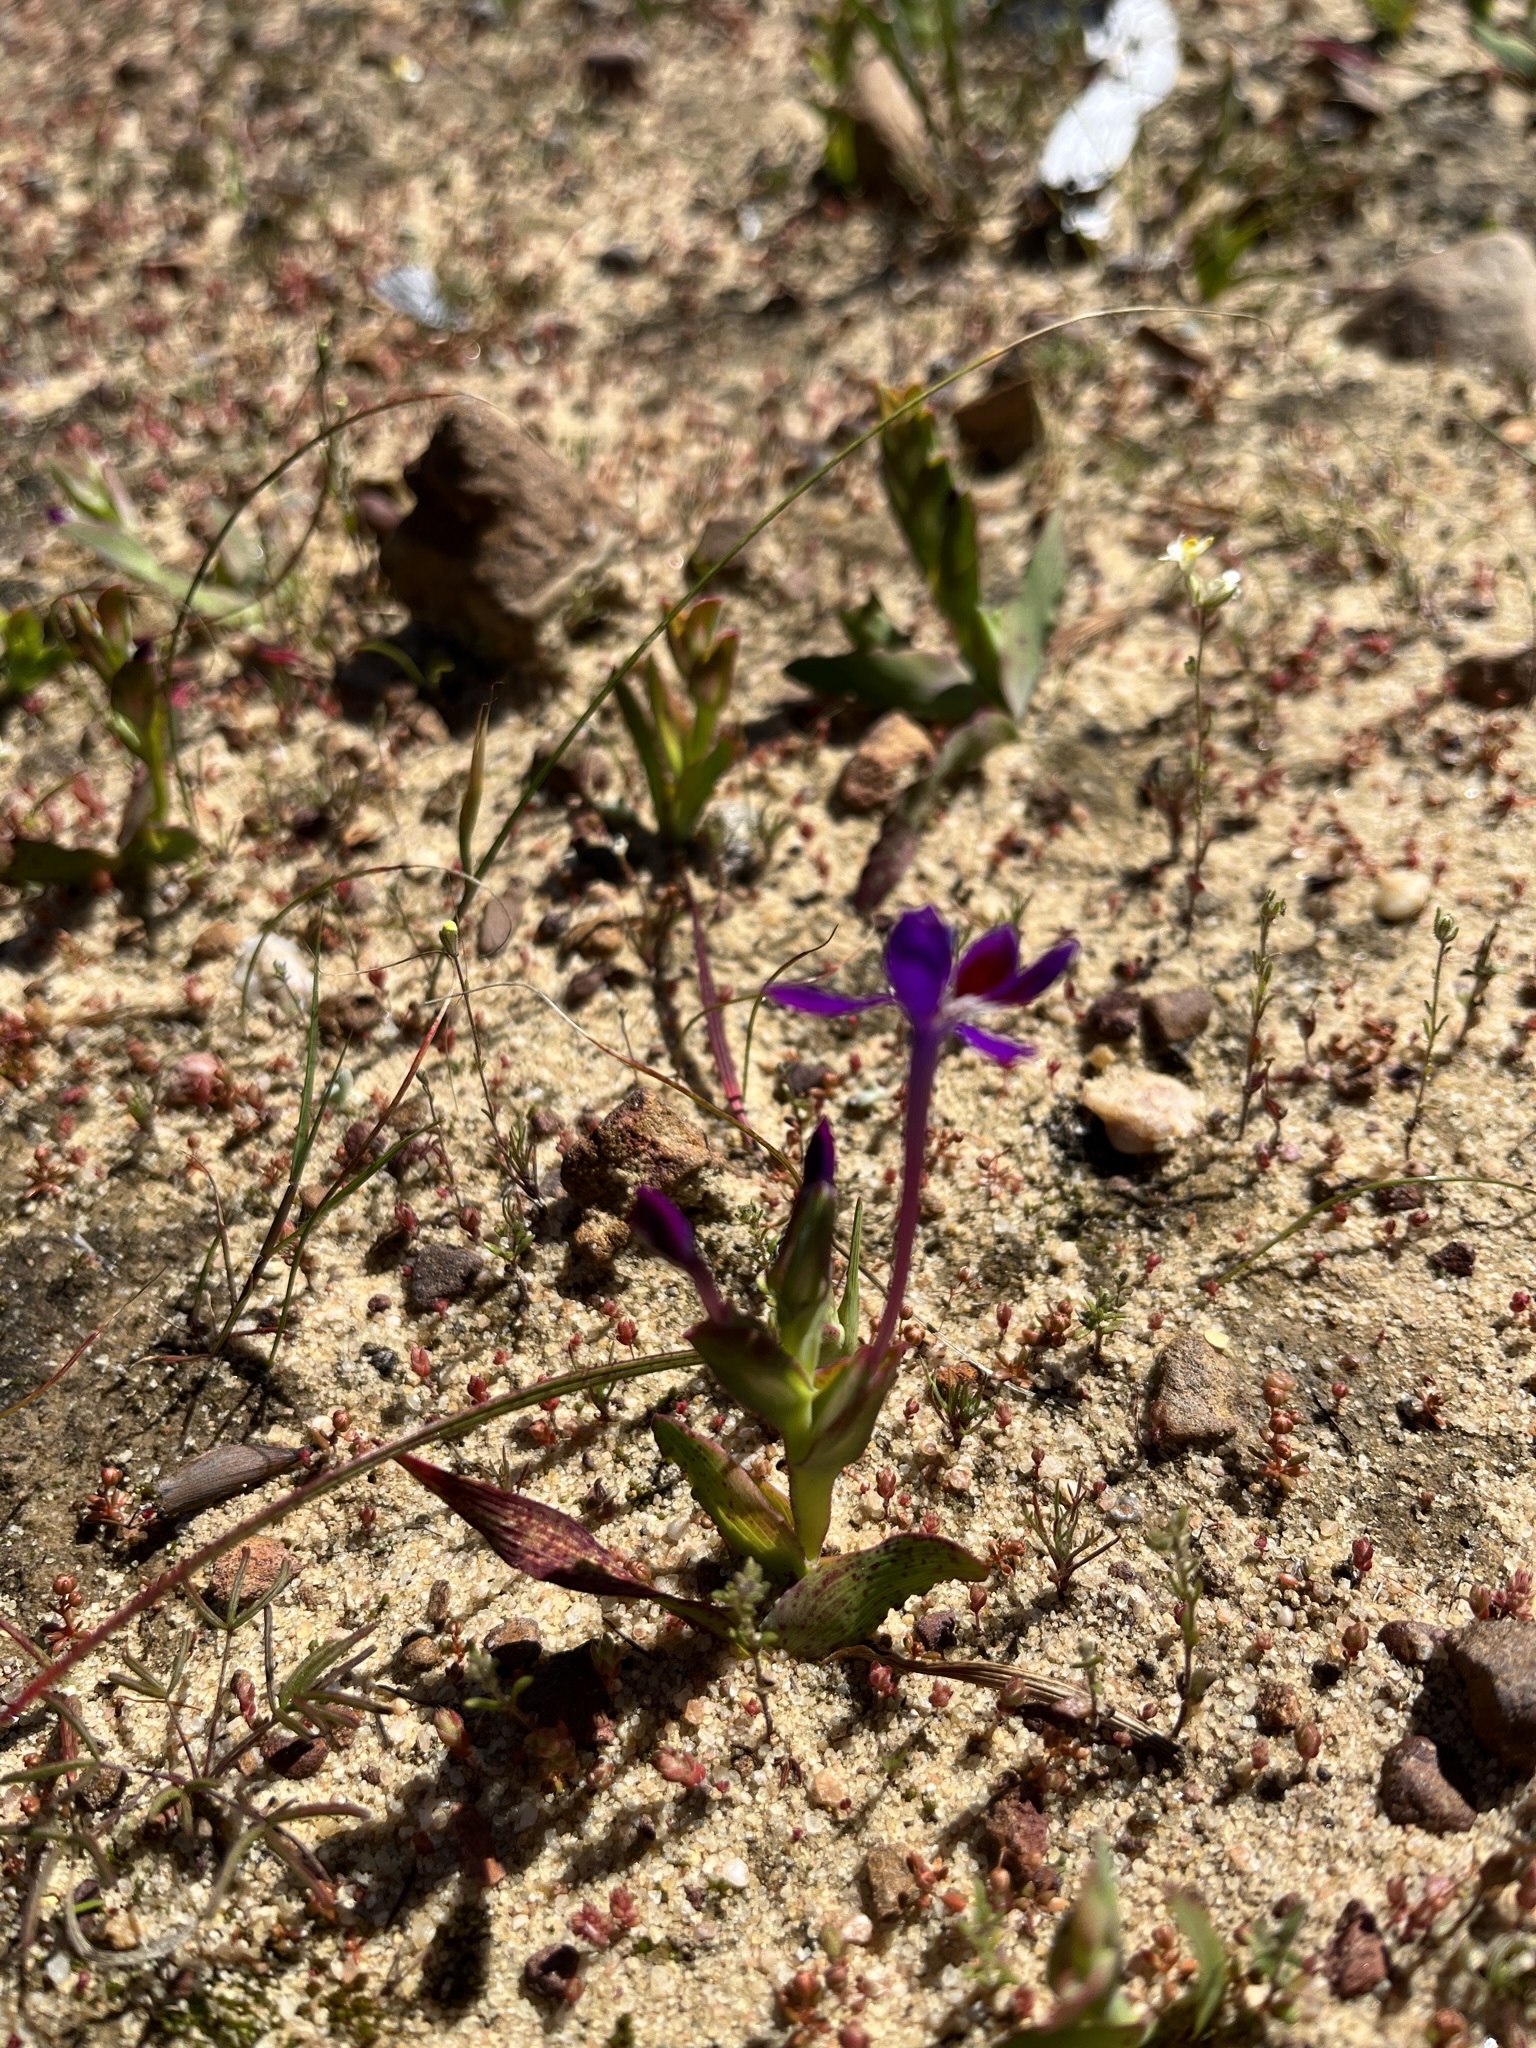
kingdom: Plantae
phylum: Tracheophyta
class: Liliopsida
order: Asparagales
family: Iridaceae
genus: Lapeirousia
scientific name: Lapeirousia jacquinii
